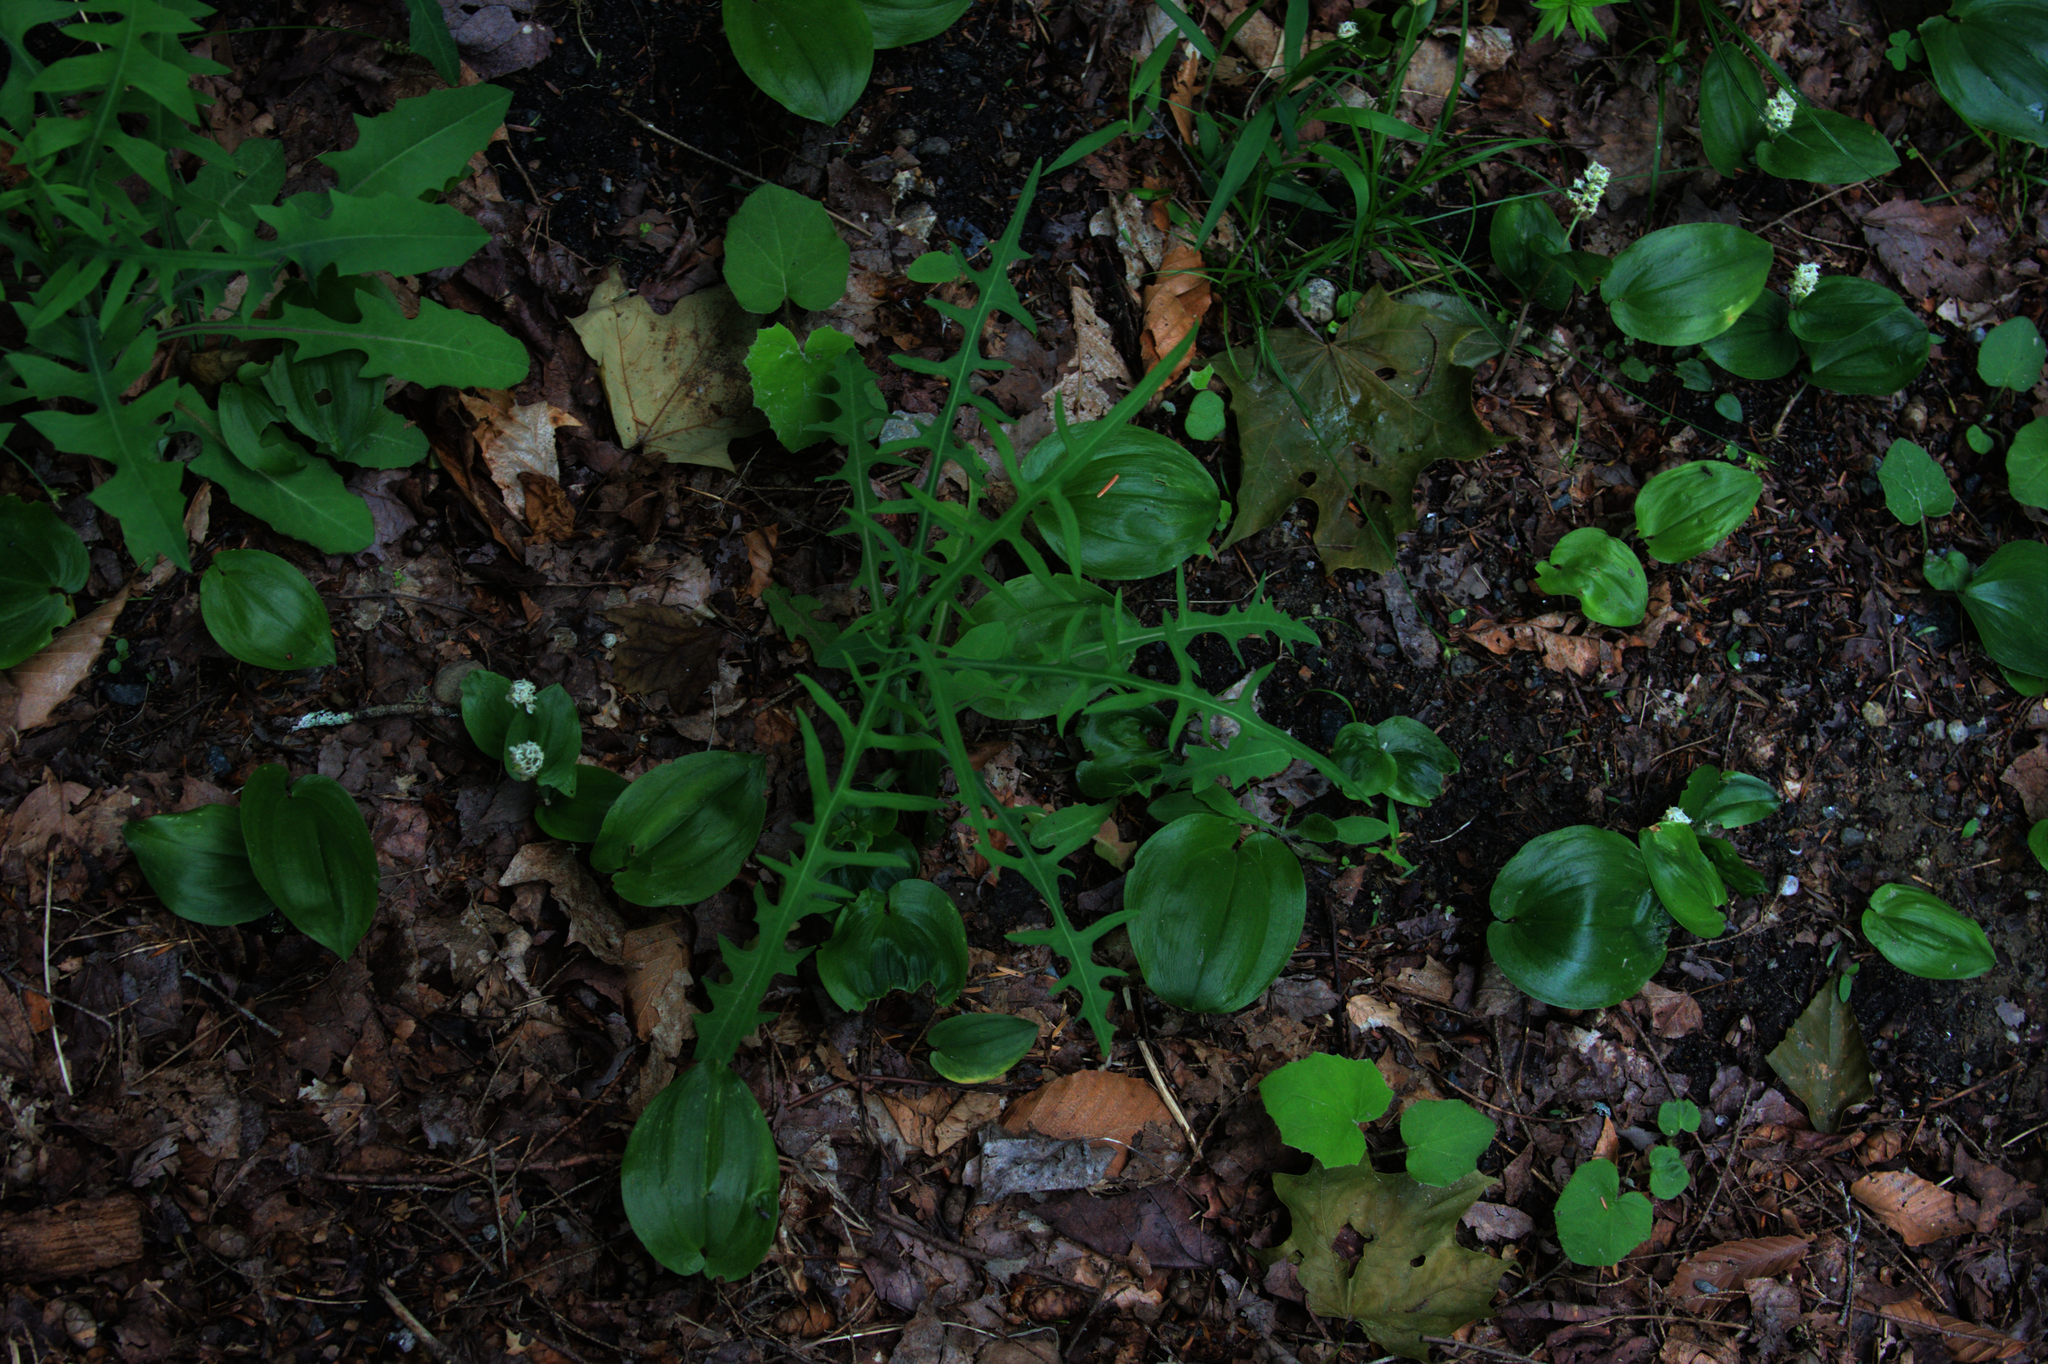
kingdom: Plantae
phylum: Tracheophyta
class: Liliopsida
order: Asparagales
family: Asparagaceae
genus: Maianthemum
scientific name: Maianthemum canadense
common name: False lily-of-the-valley
